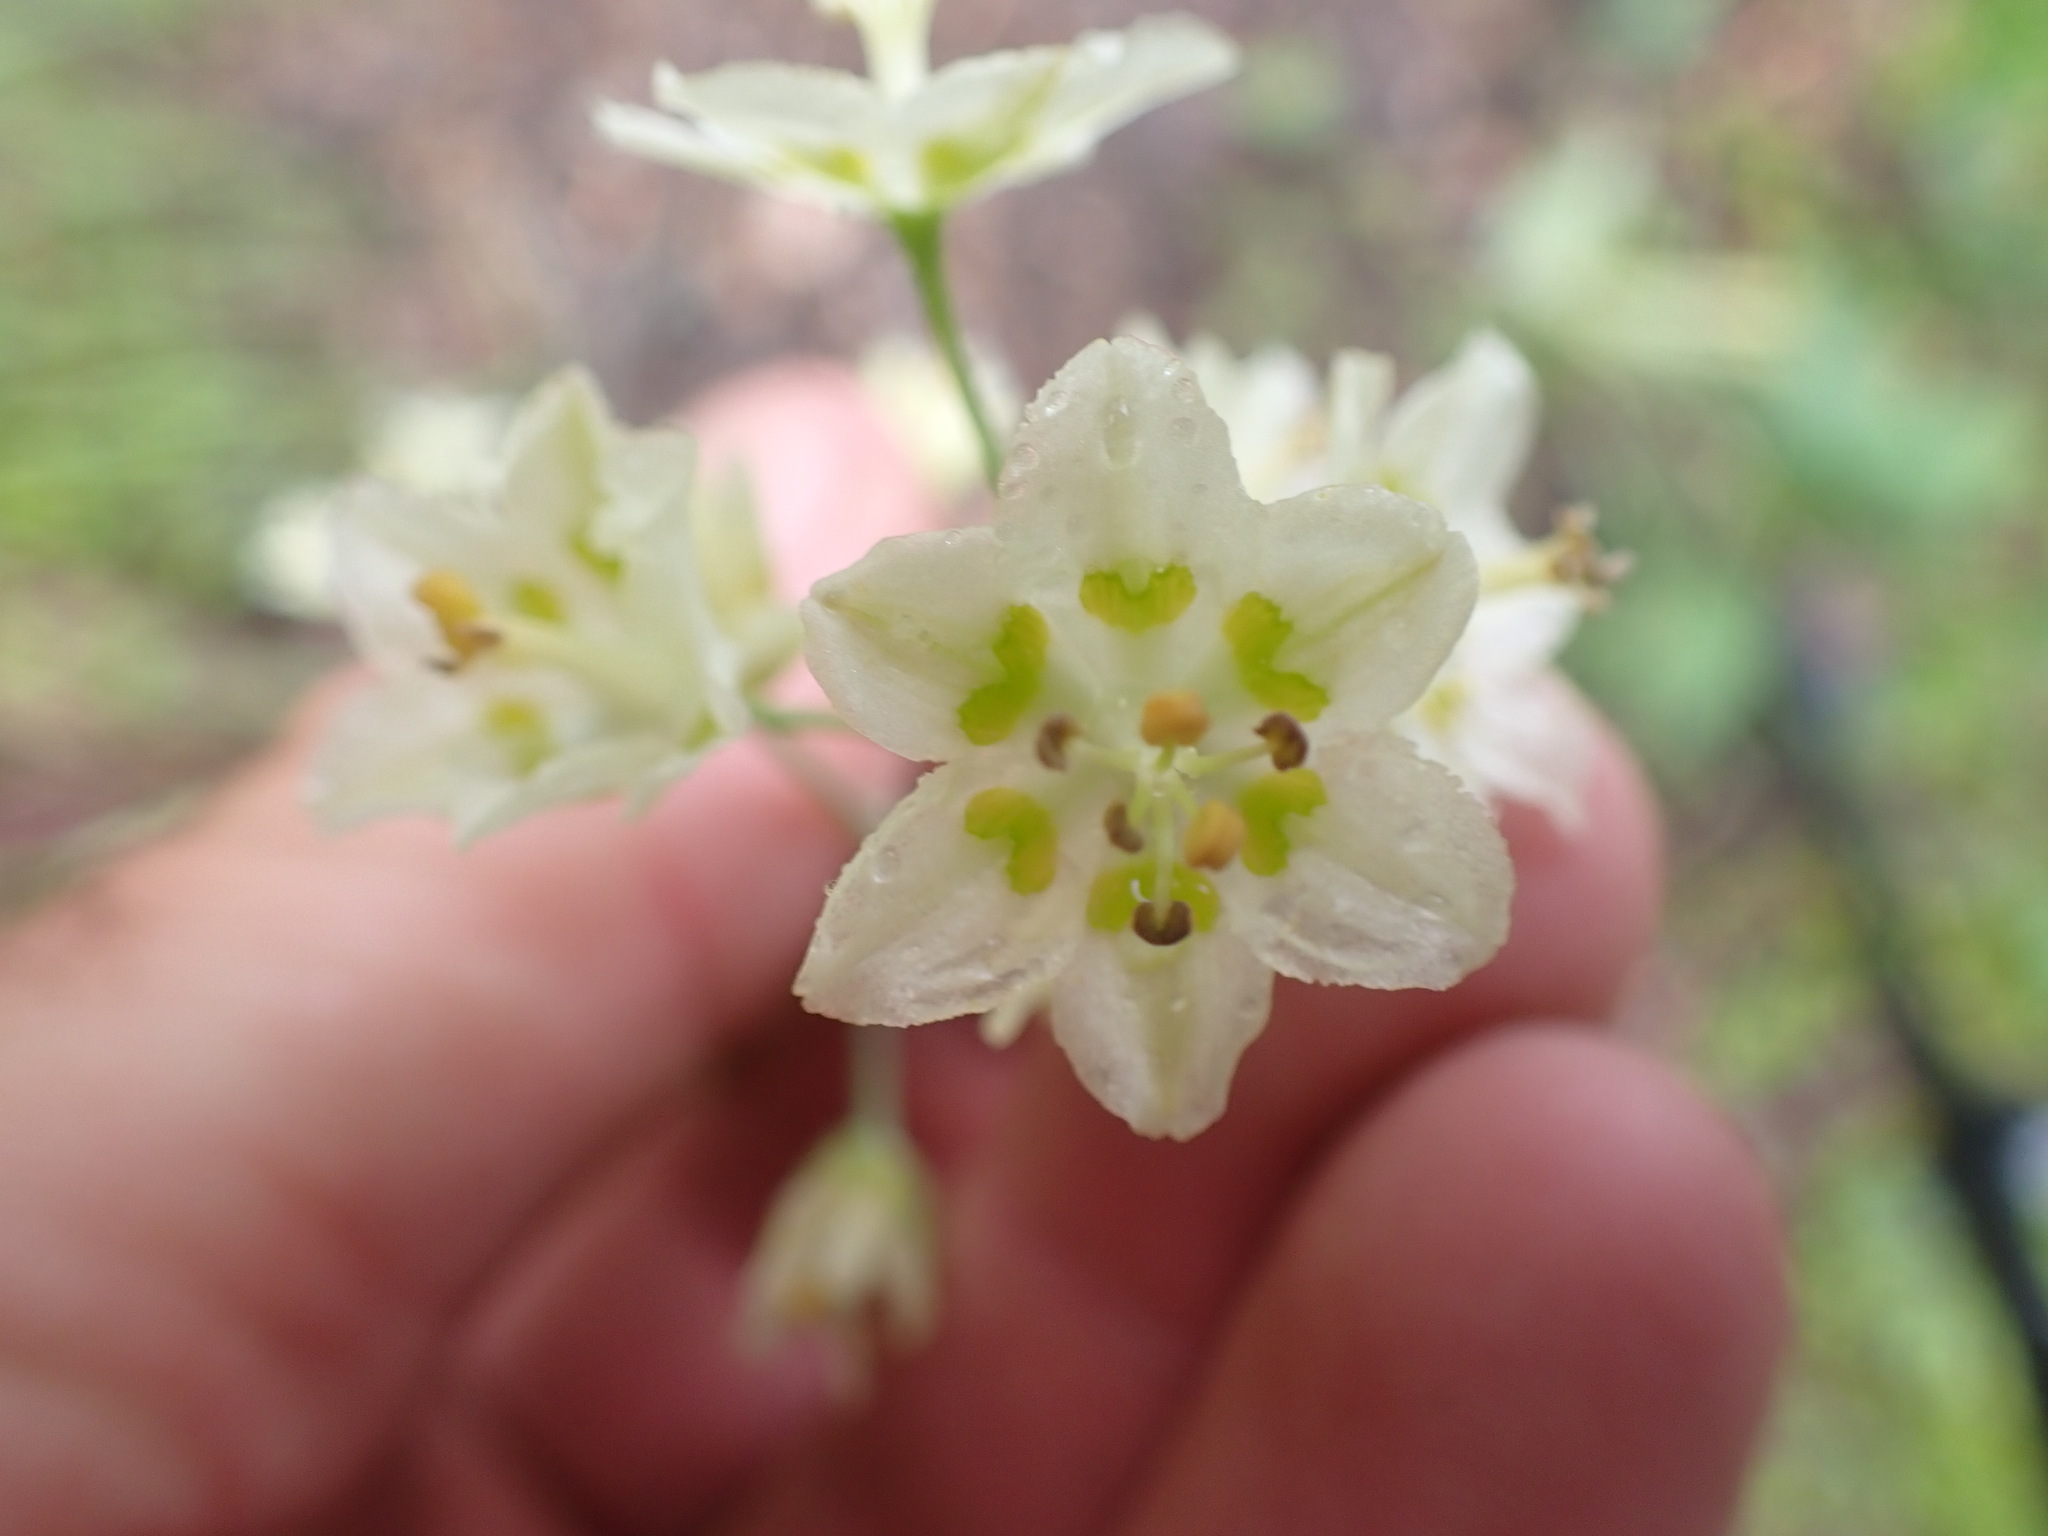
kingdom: Plantae
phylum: Tracheophyta
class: Liliopsida
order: Liliales
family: Melanthiaceae
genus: Anticlea
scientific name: Anticlea elegans
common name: Mountain death camas
